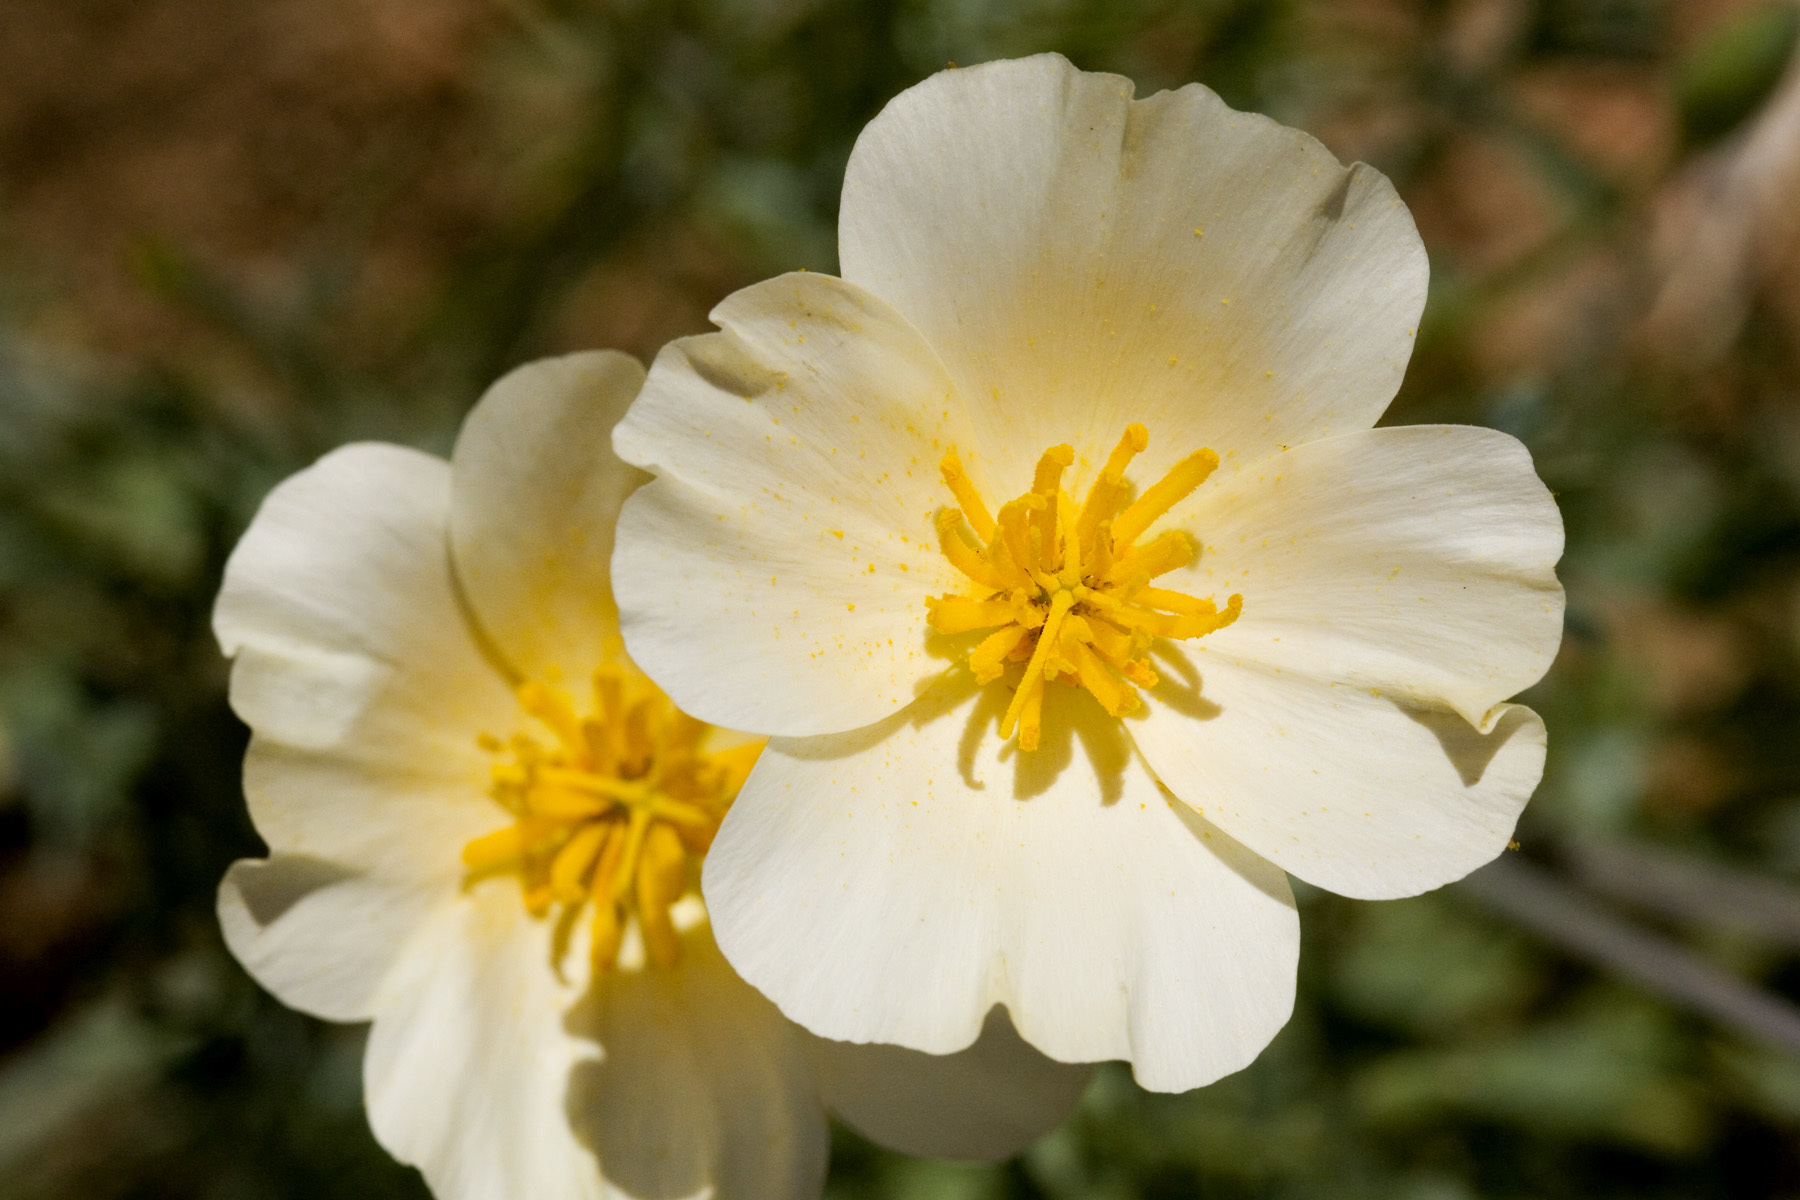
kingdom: Plantae
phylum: Tracheophyta
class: Magnoliopsida
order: Ranunculales
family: Papaveraceae
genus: Eschscholzia
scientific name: Eschscholzia californica
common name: California poppy
